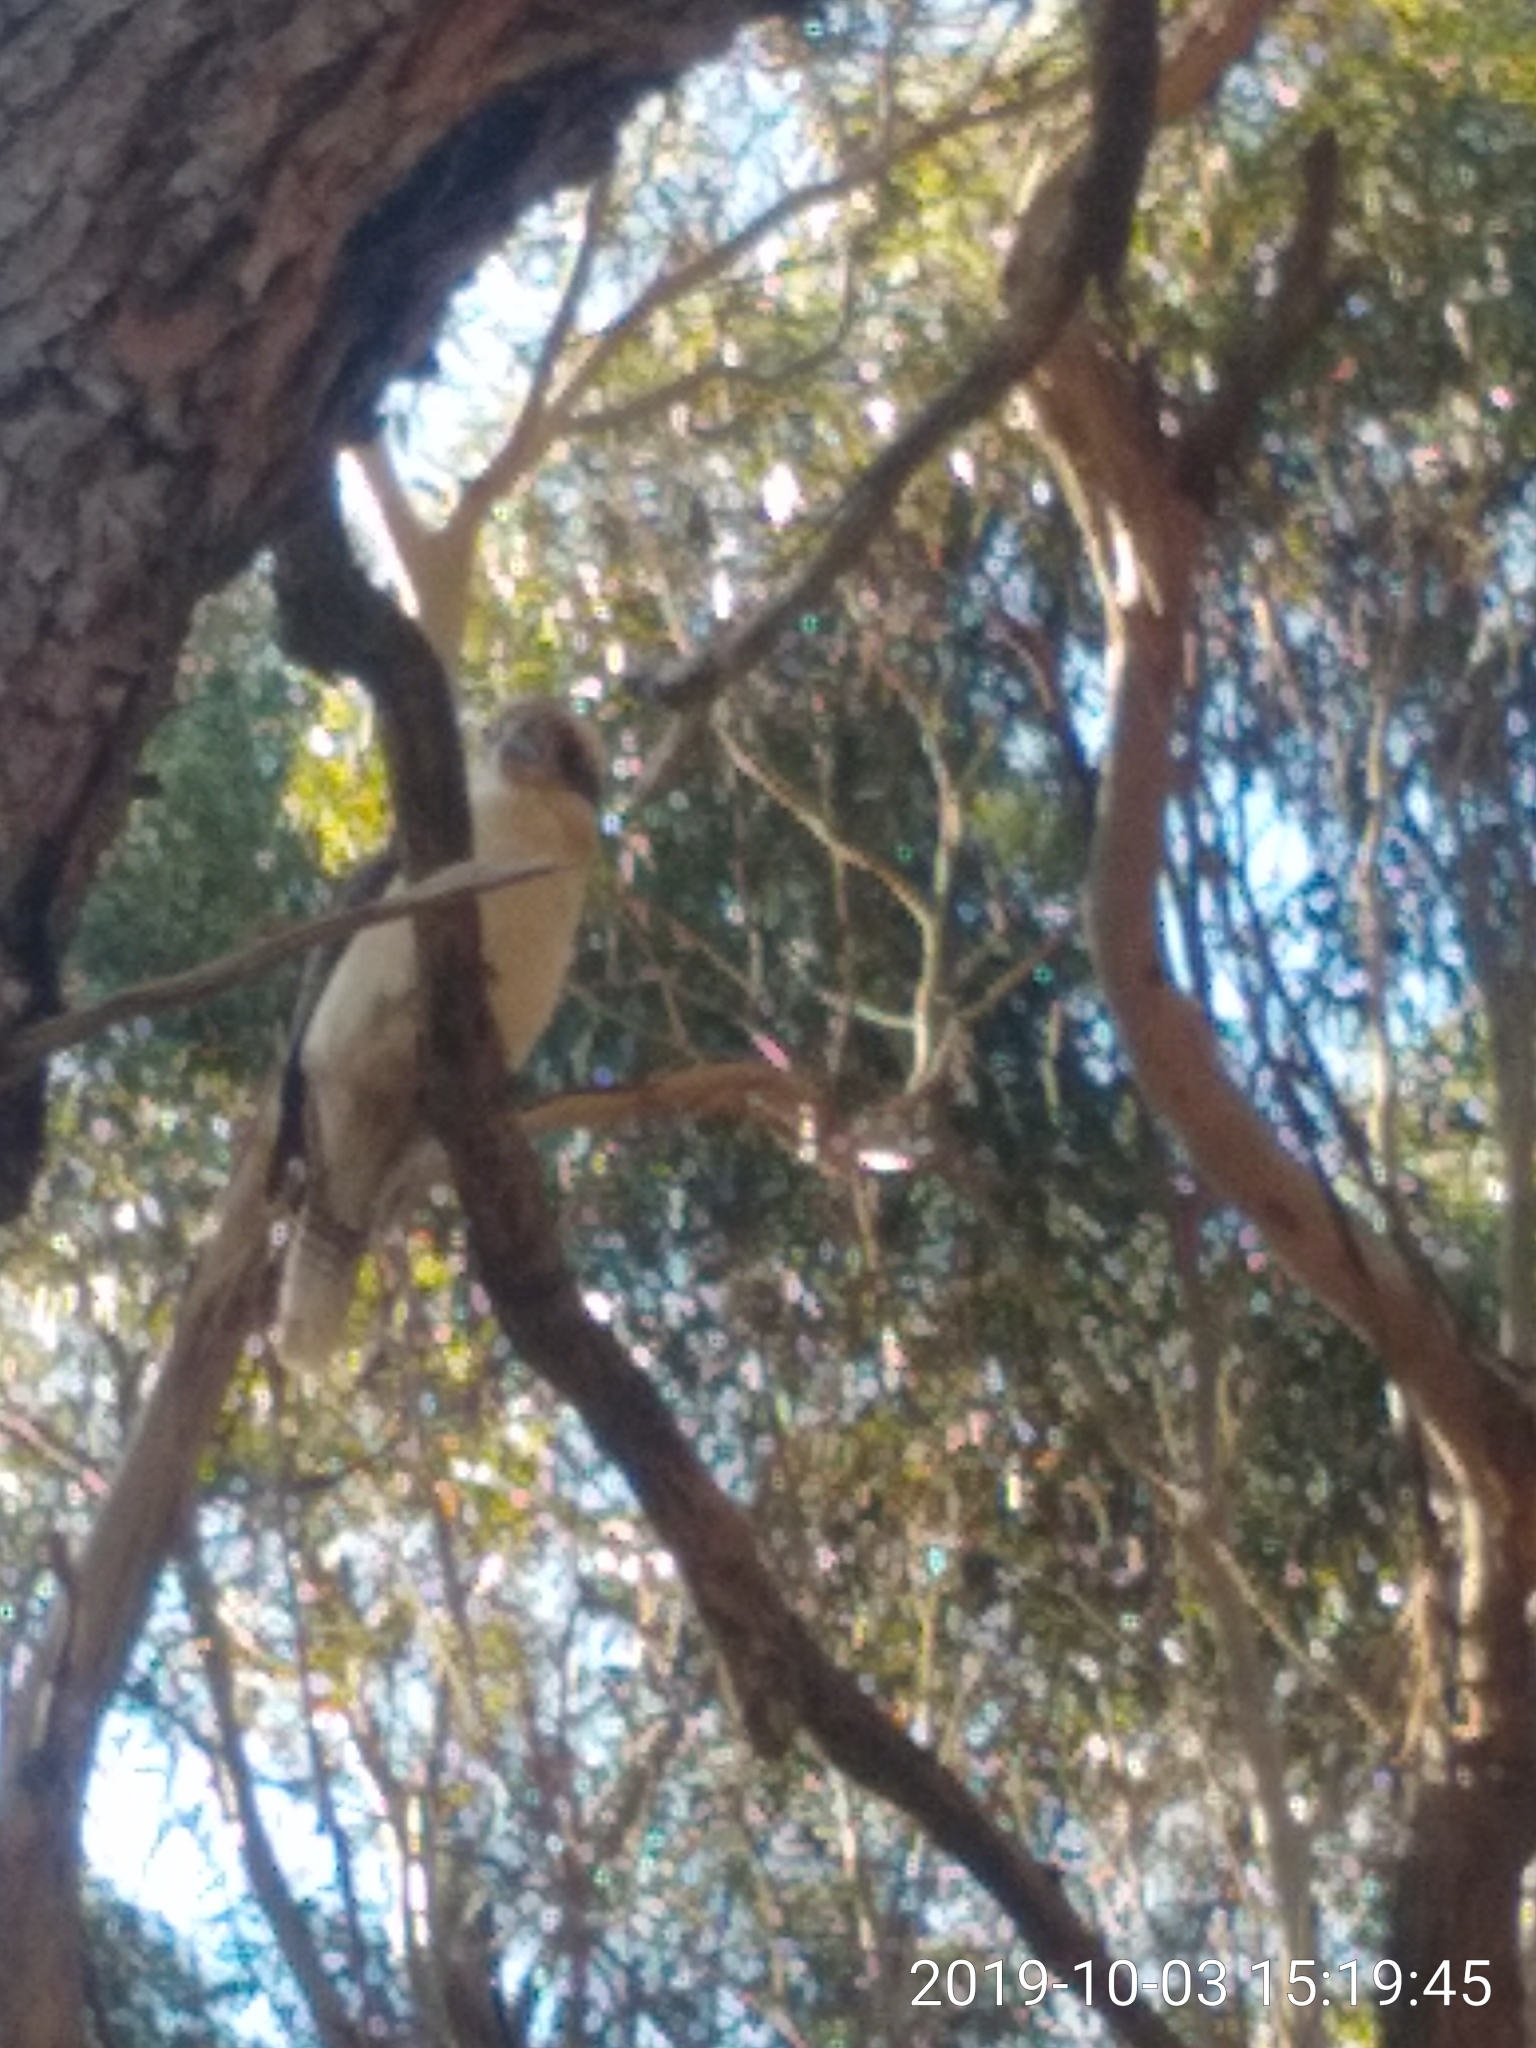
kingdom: Animalia
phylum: Chordata
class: Aves
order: Coraciiformes
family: Alcedinidae
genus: Dacelo
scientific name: Dacelo novaeguineae
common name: Laughing kookaburra
